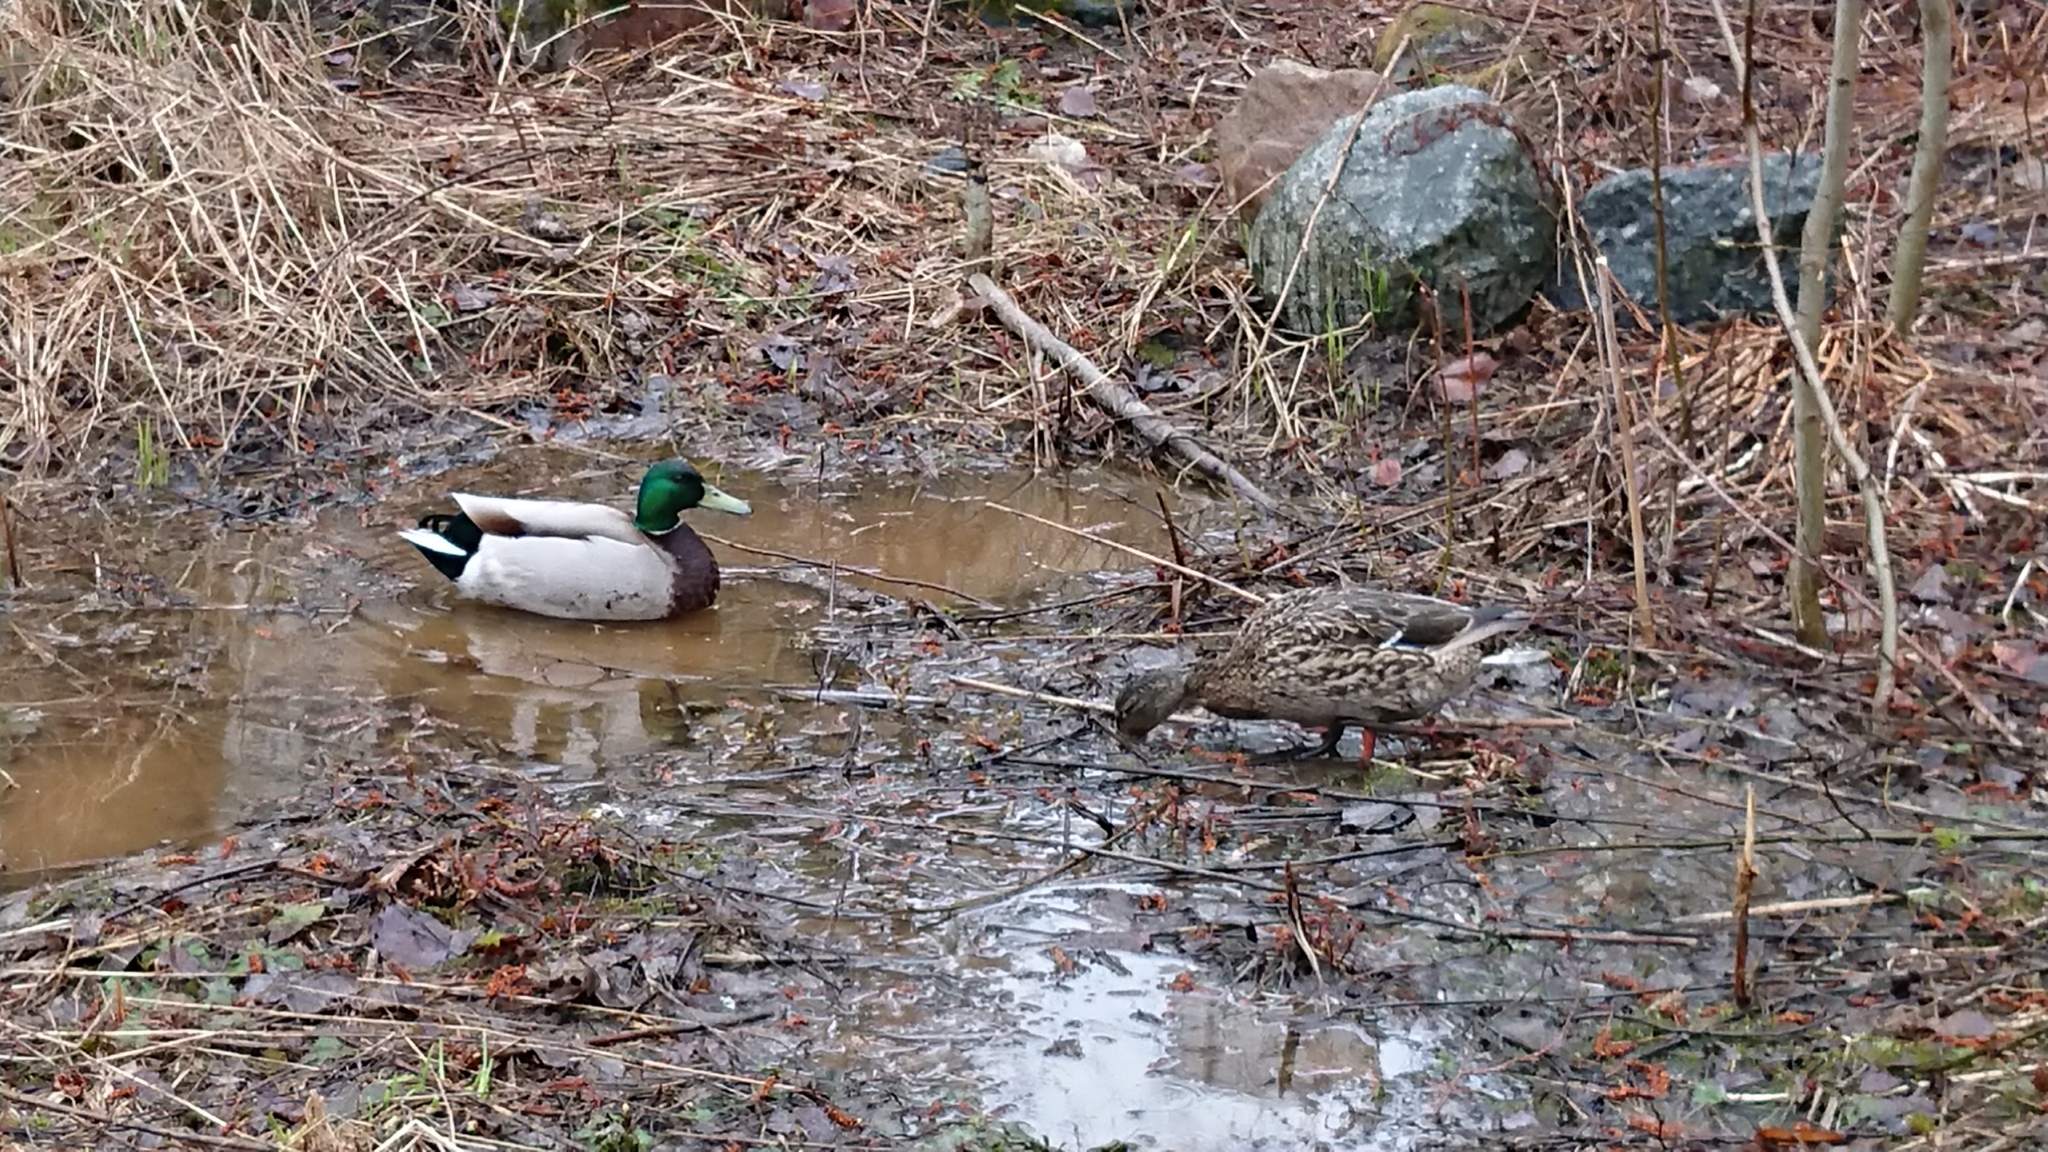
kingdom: Animalia
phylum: Chordata
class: Aves
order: Anseriformes
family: Anatidae
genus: Anas
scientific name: Anas platyrhynchos
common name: Mallard
